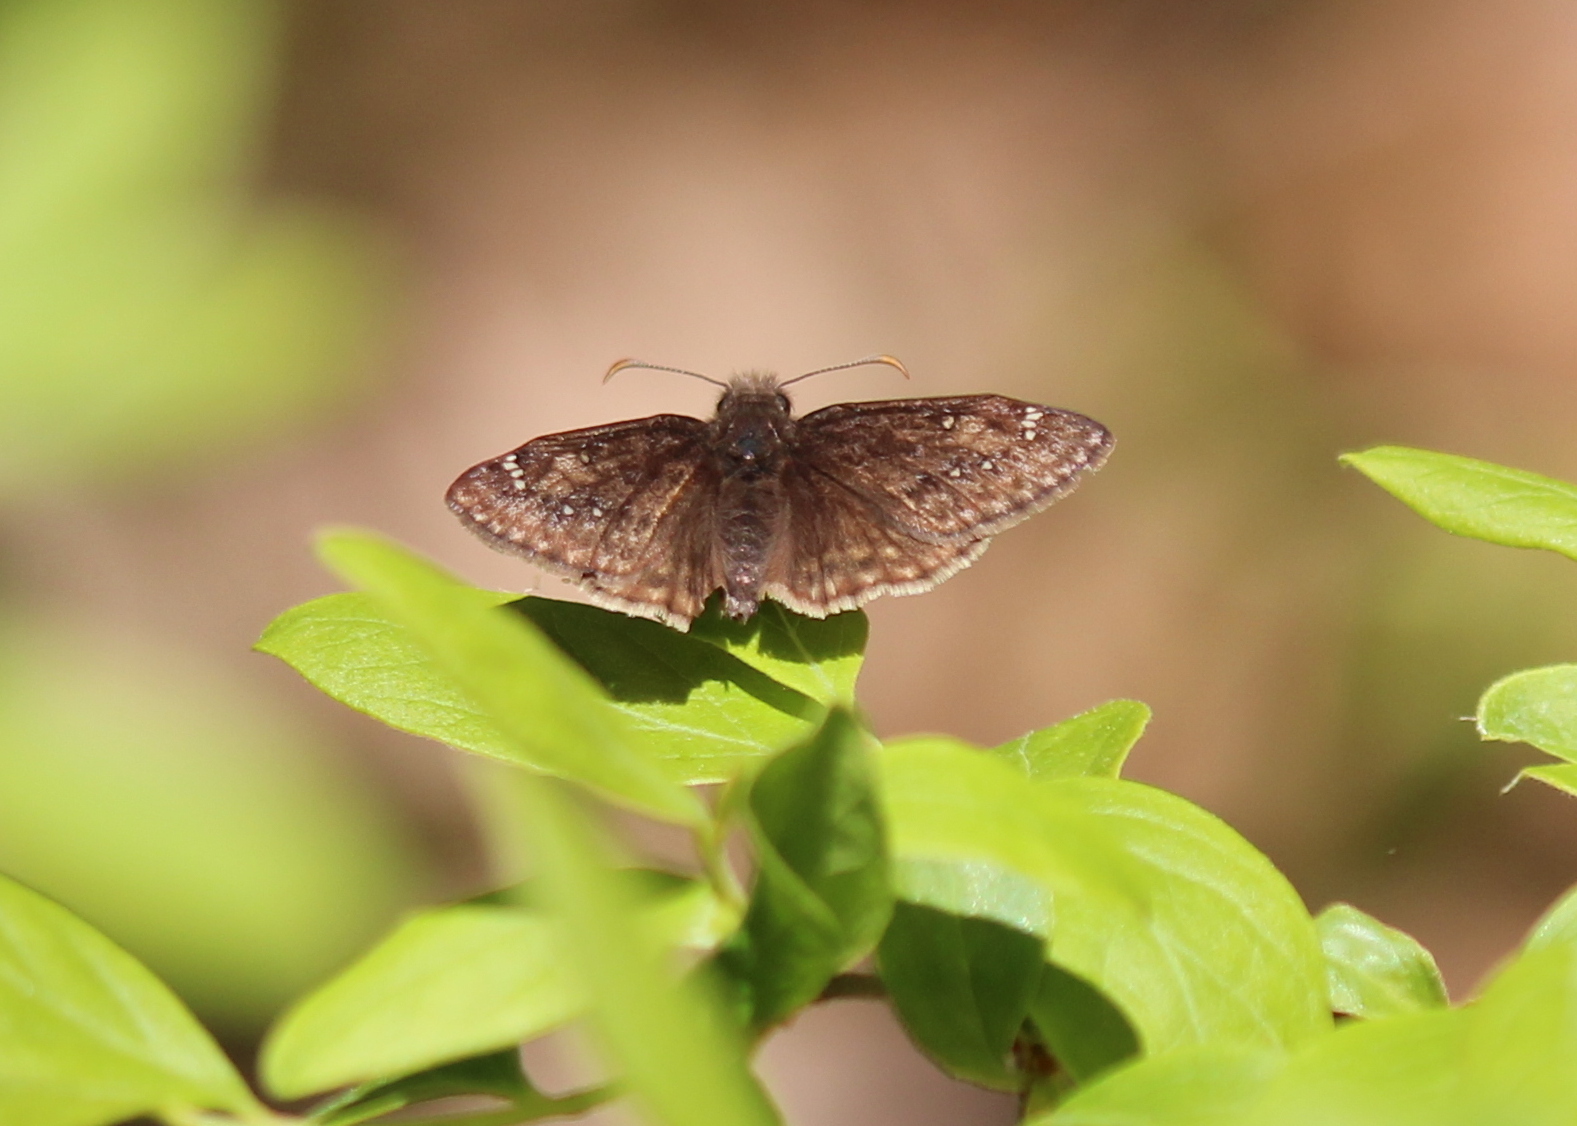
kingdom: Animalia
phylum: Arthropoda
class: Insecta
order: Lepidoptera
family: Hesperiidae
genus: Erynnis
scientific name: Erynnis juvenalis
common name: Juvenal's duskywing
